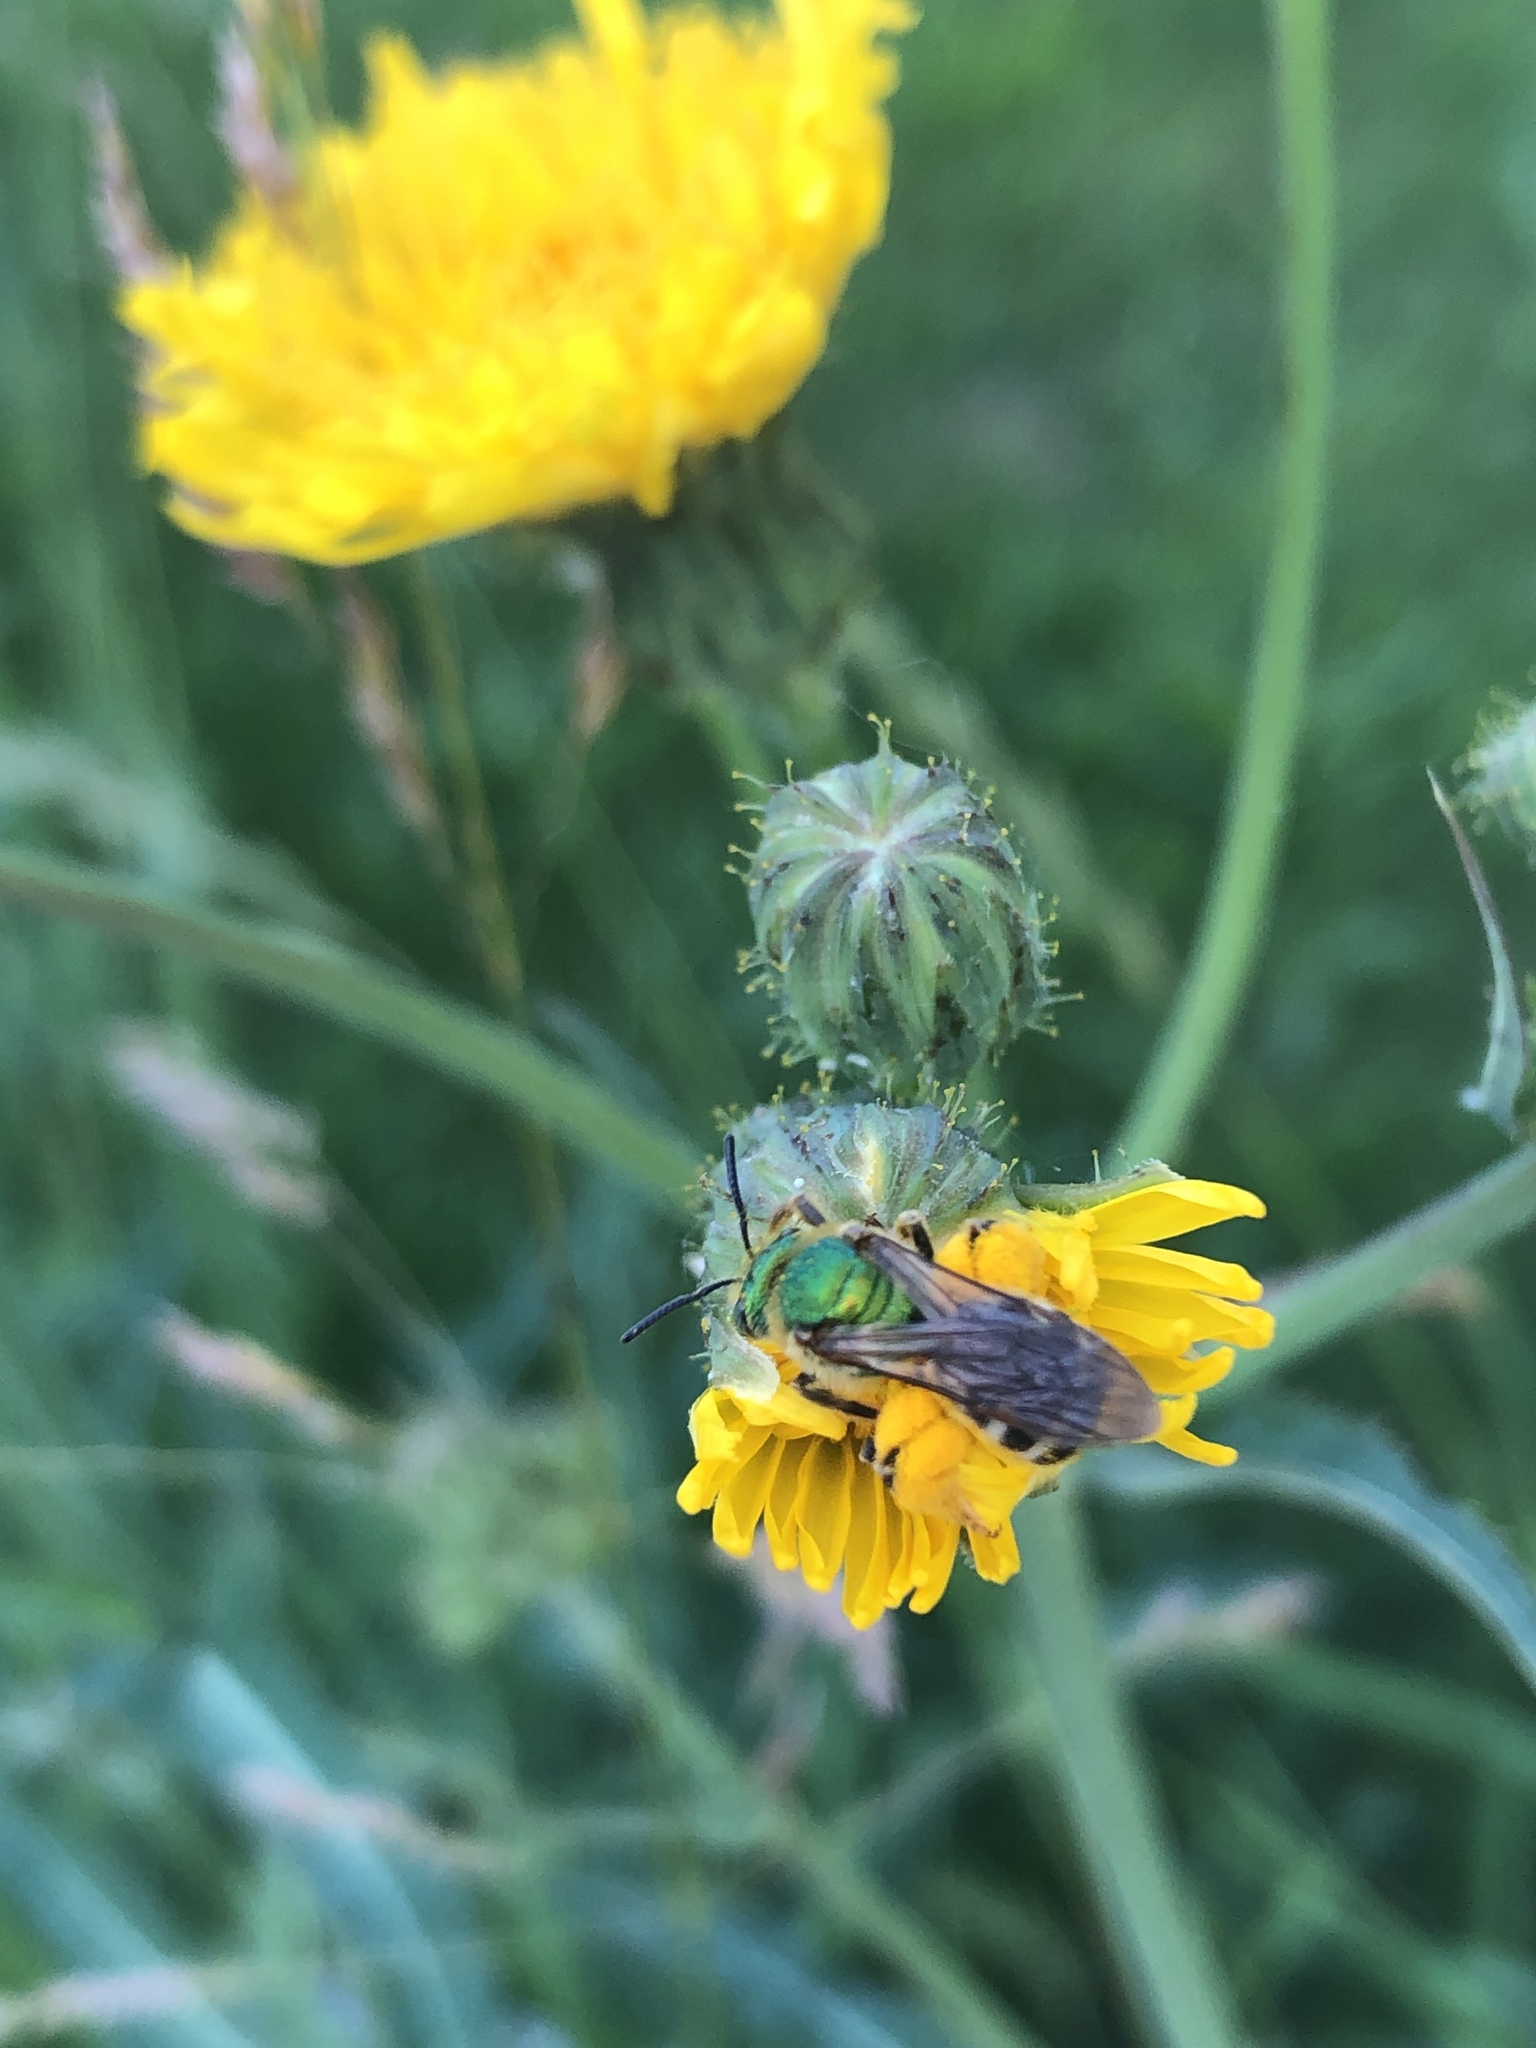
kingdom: Animalia
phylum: Arthropoda
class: Insecta
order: Hymenoptera
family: Halictidae
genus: Agapostemon
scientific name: Agapostemon virescens
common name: Bicolored striped sweat bee
